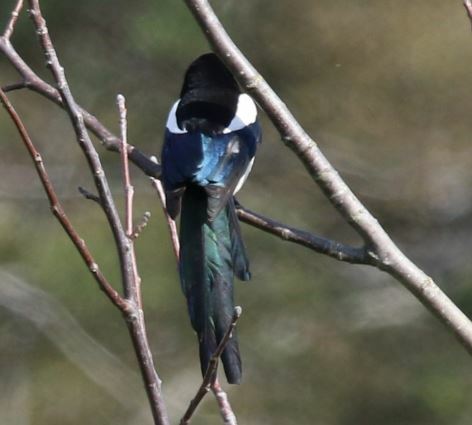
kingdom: Animalia
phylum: Chordata
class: Aves
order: Passeriformes
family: Corvidae
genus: Pica
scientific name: Pica pica
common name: Eurasian magpie
